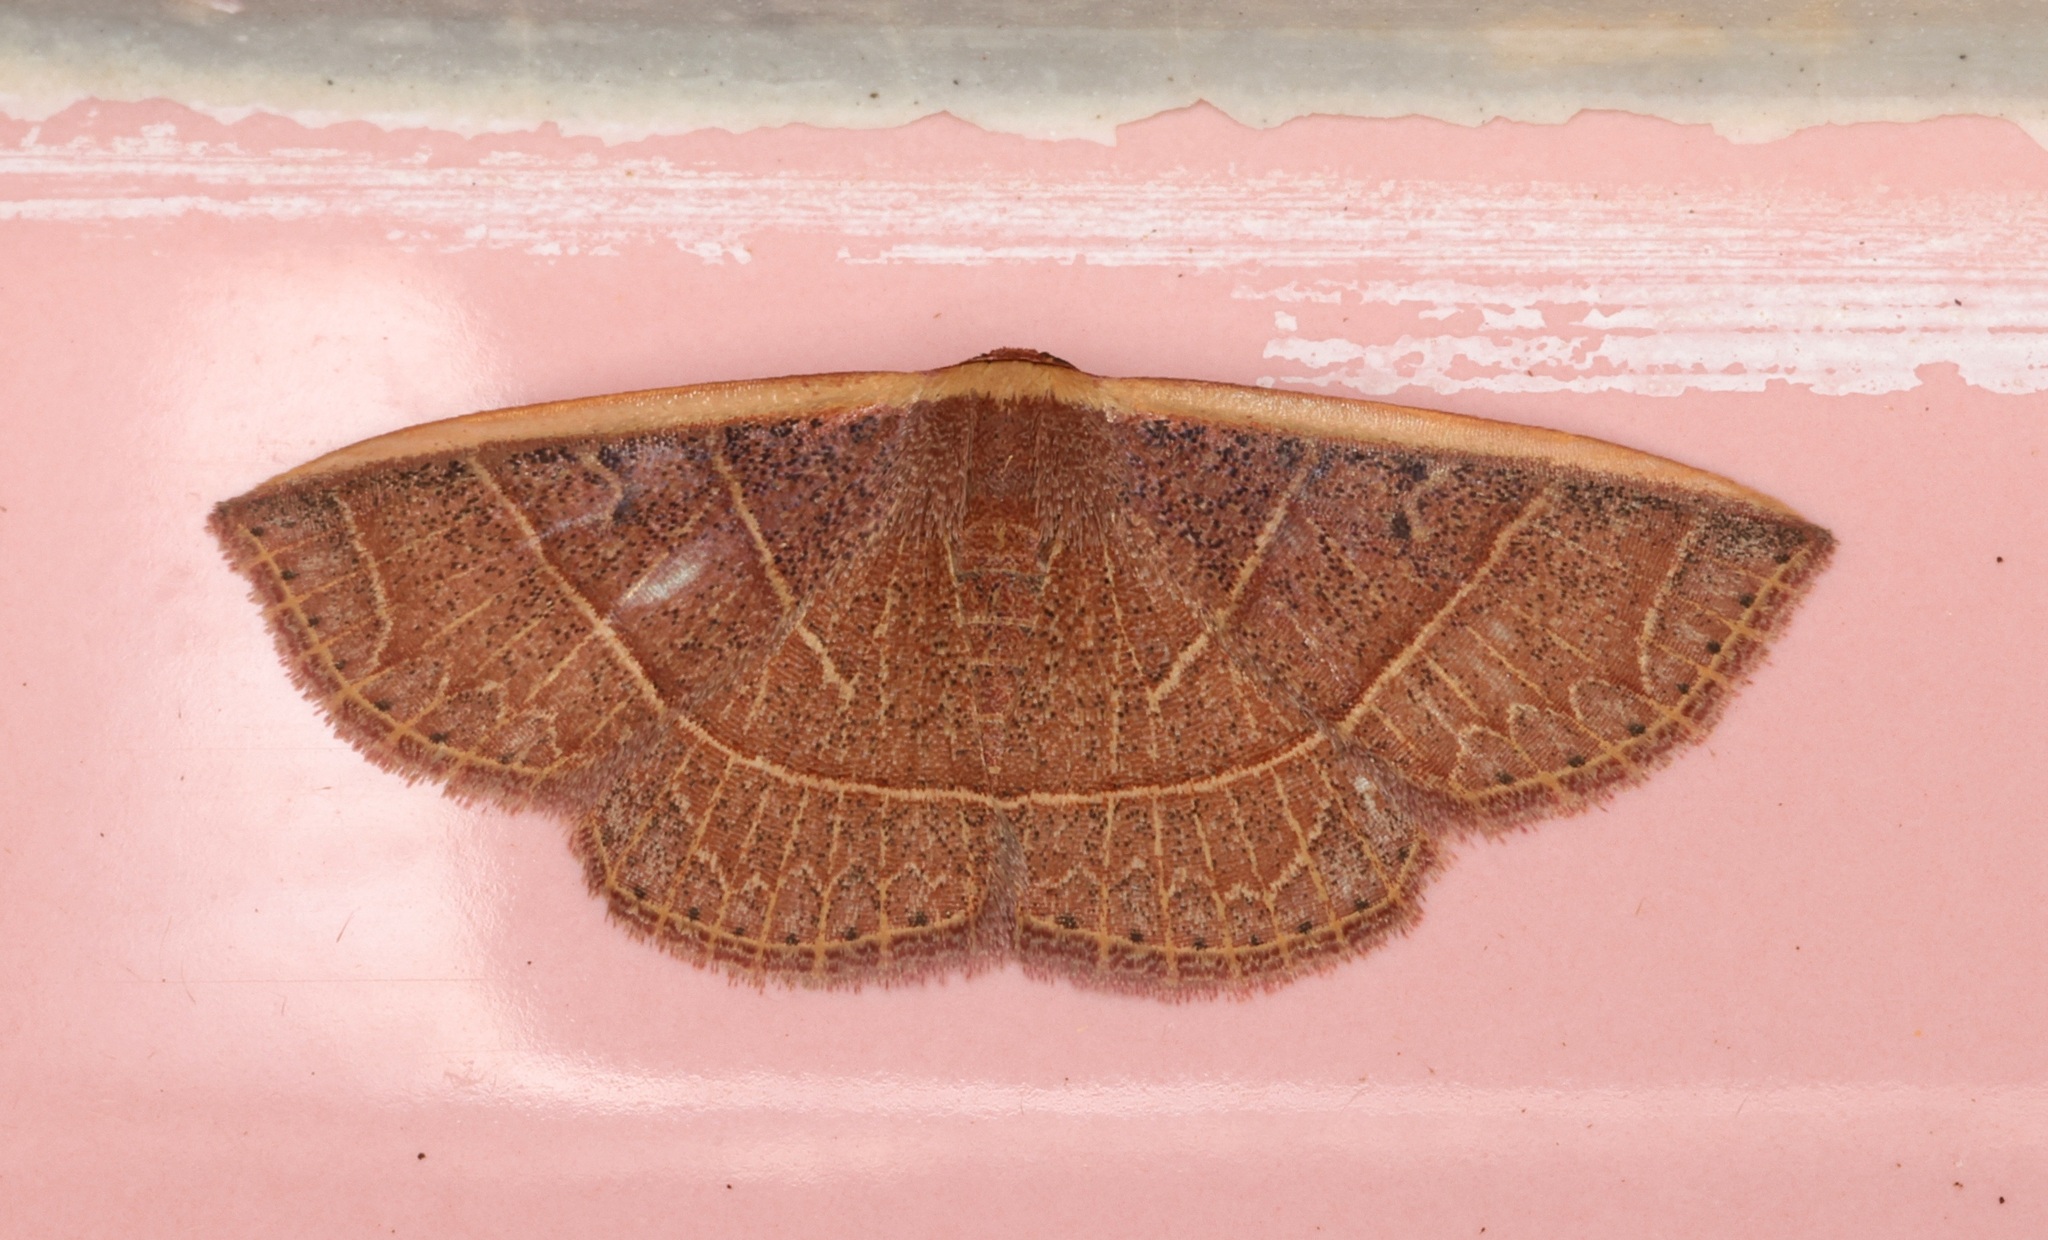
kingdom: Animalia
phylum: Arthropoda
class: Insecta
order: Lepidoptera
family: Noctuidae
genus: Oruza
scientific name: Oruza mira
